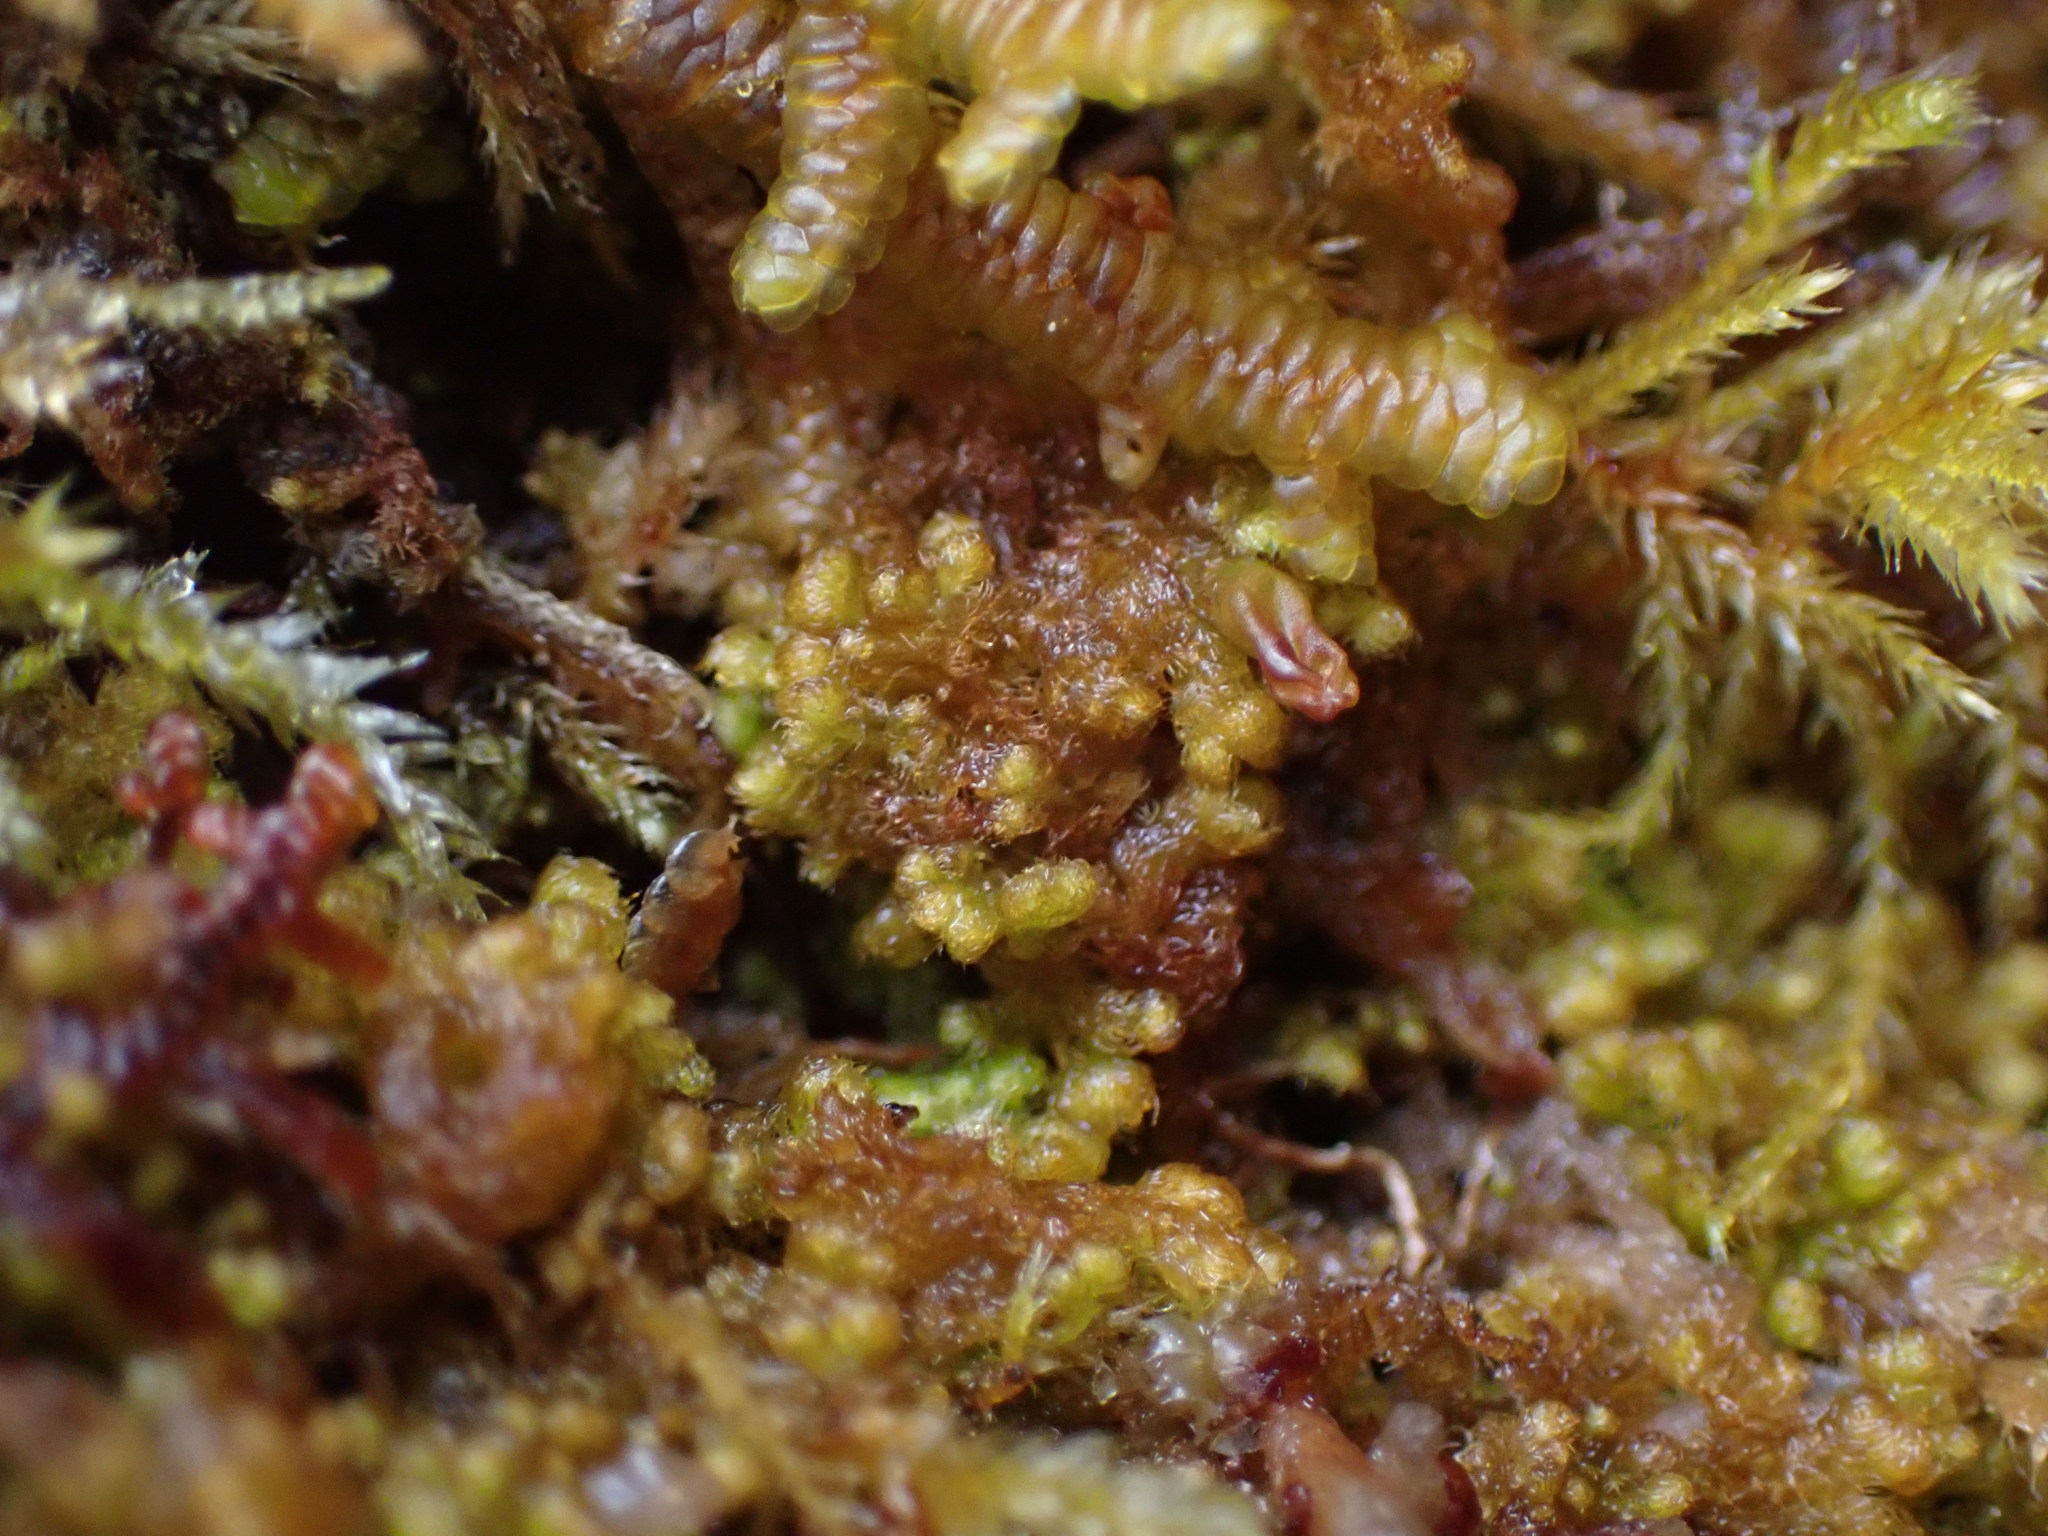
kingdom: Plantae
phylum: Marchantiophyta
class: Jungermanniopsida
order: Ptilidiales
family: Ptilidiaceae
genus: Ptilidium
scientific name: Ptilidium pulcherrimum
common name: Tree fringewort
